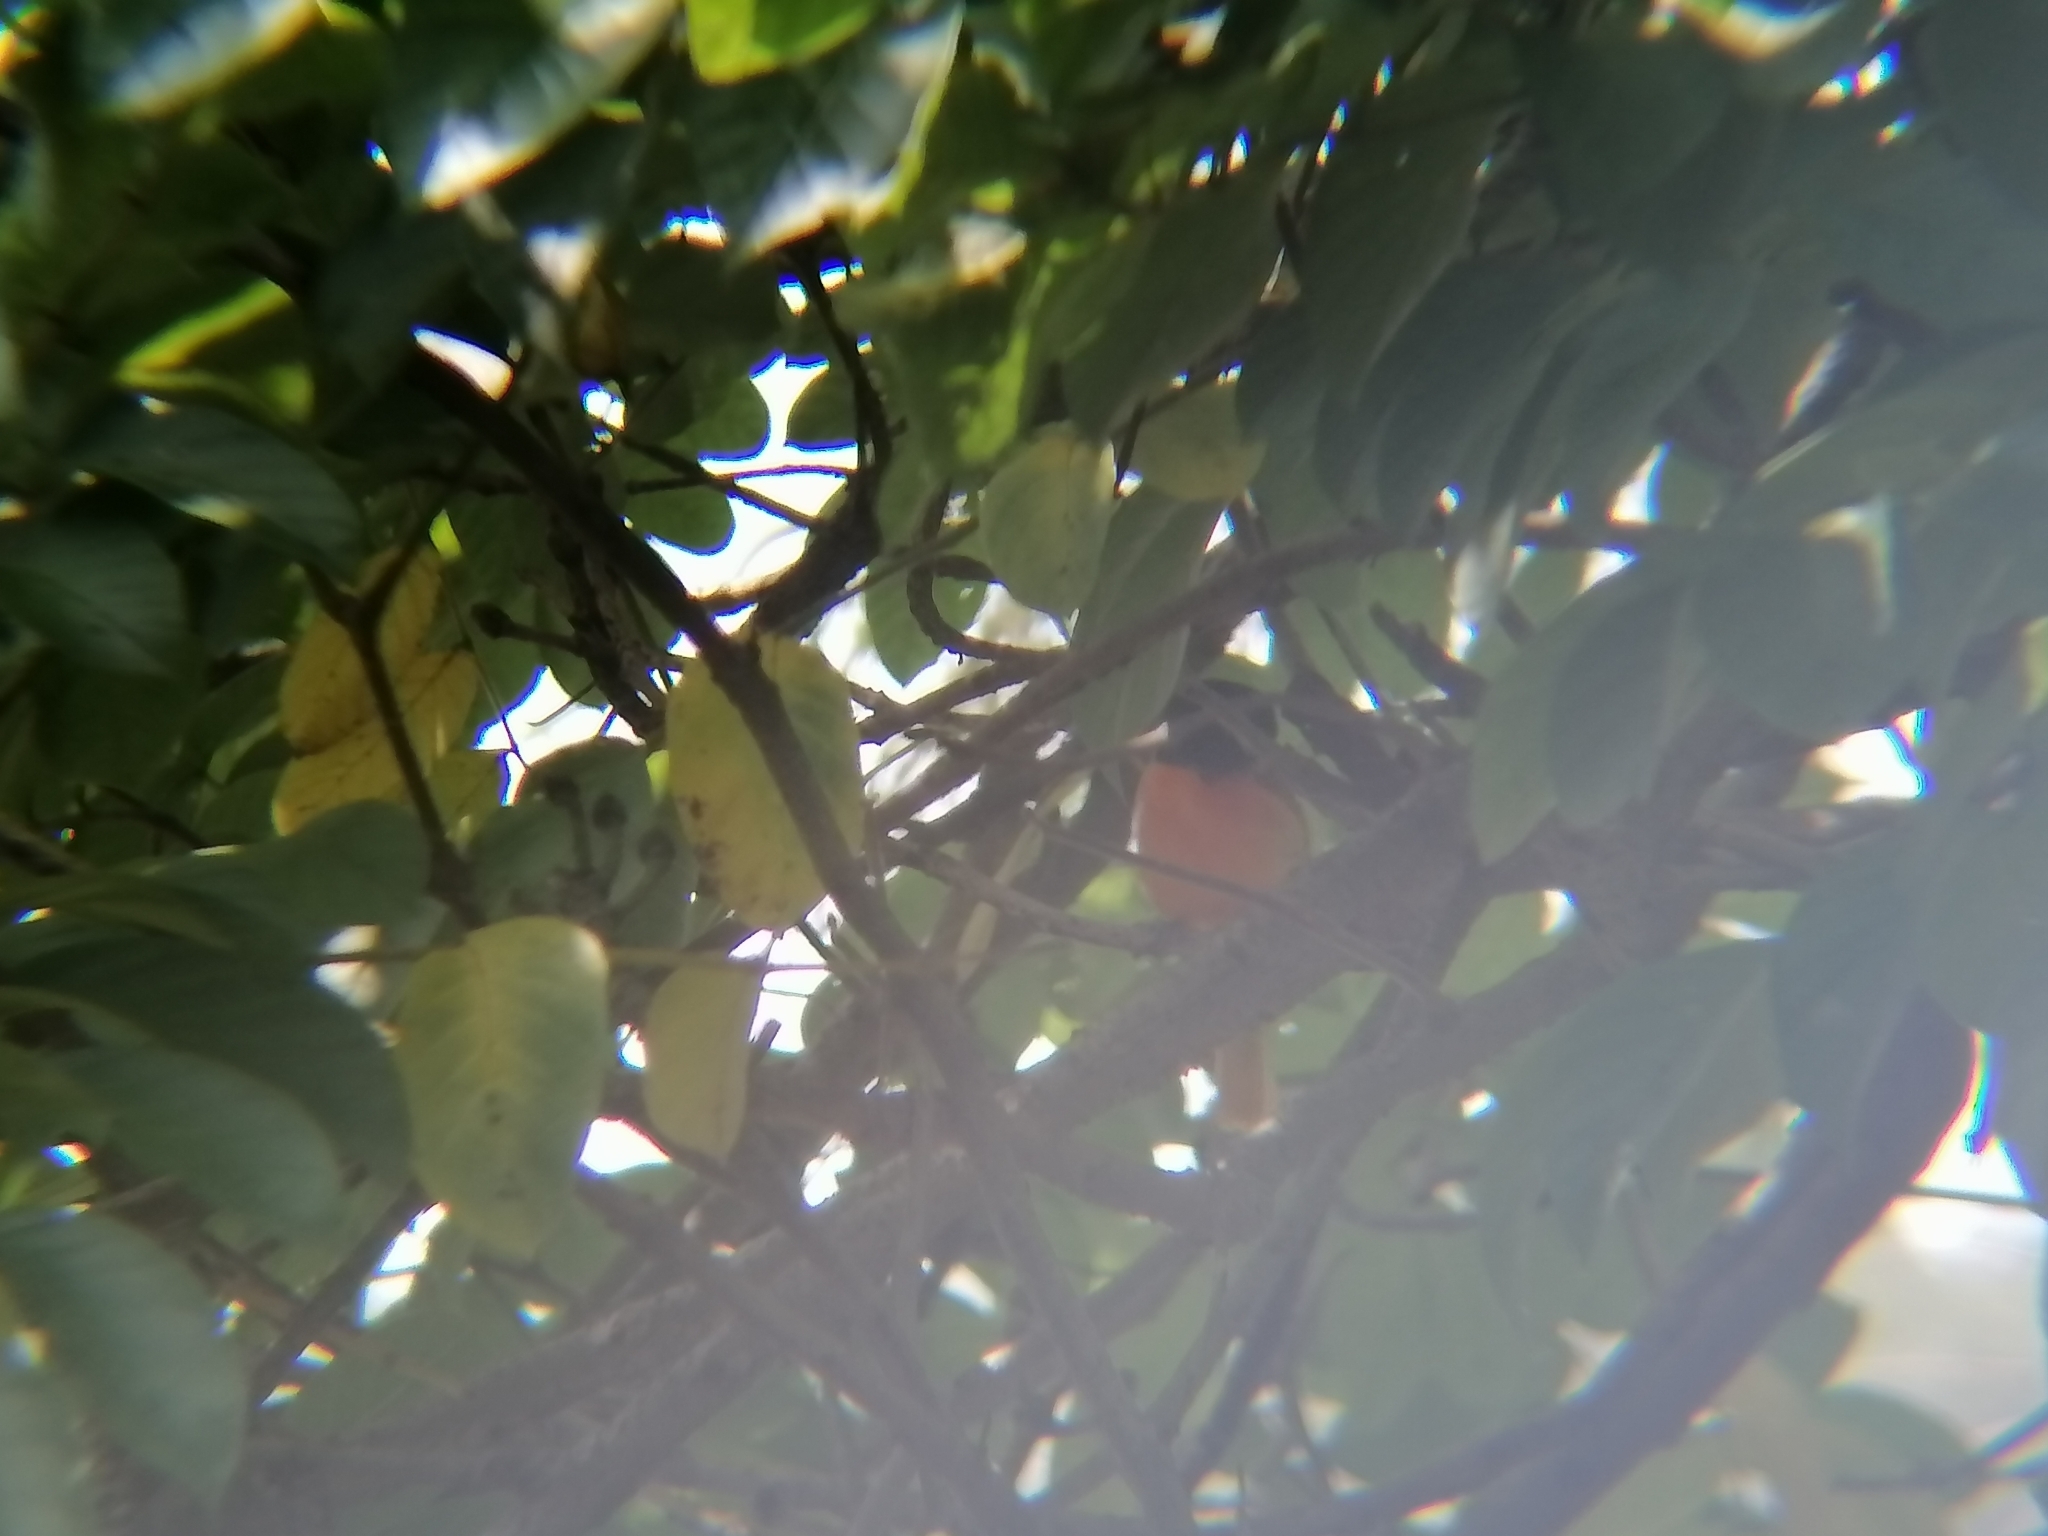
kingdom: Animalia
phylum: Chordata
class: Aves
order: Passeriformes
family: Icteridae
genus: Icterus
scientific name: Icterus galbula
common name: Baltimore oriole
